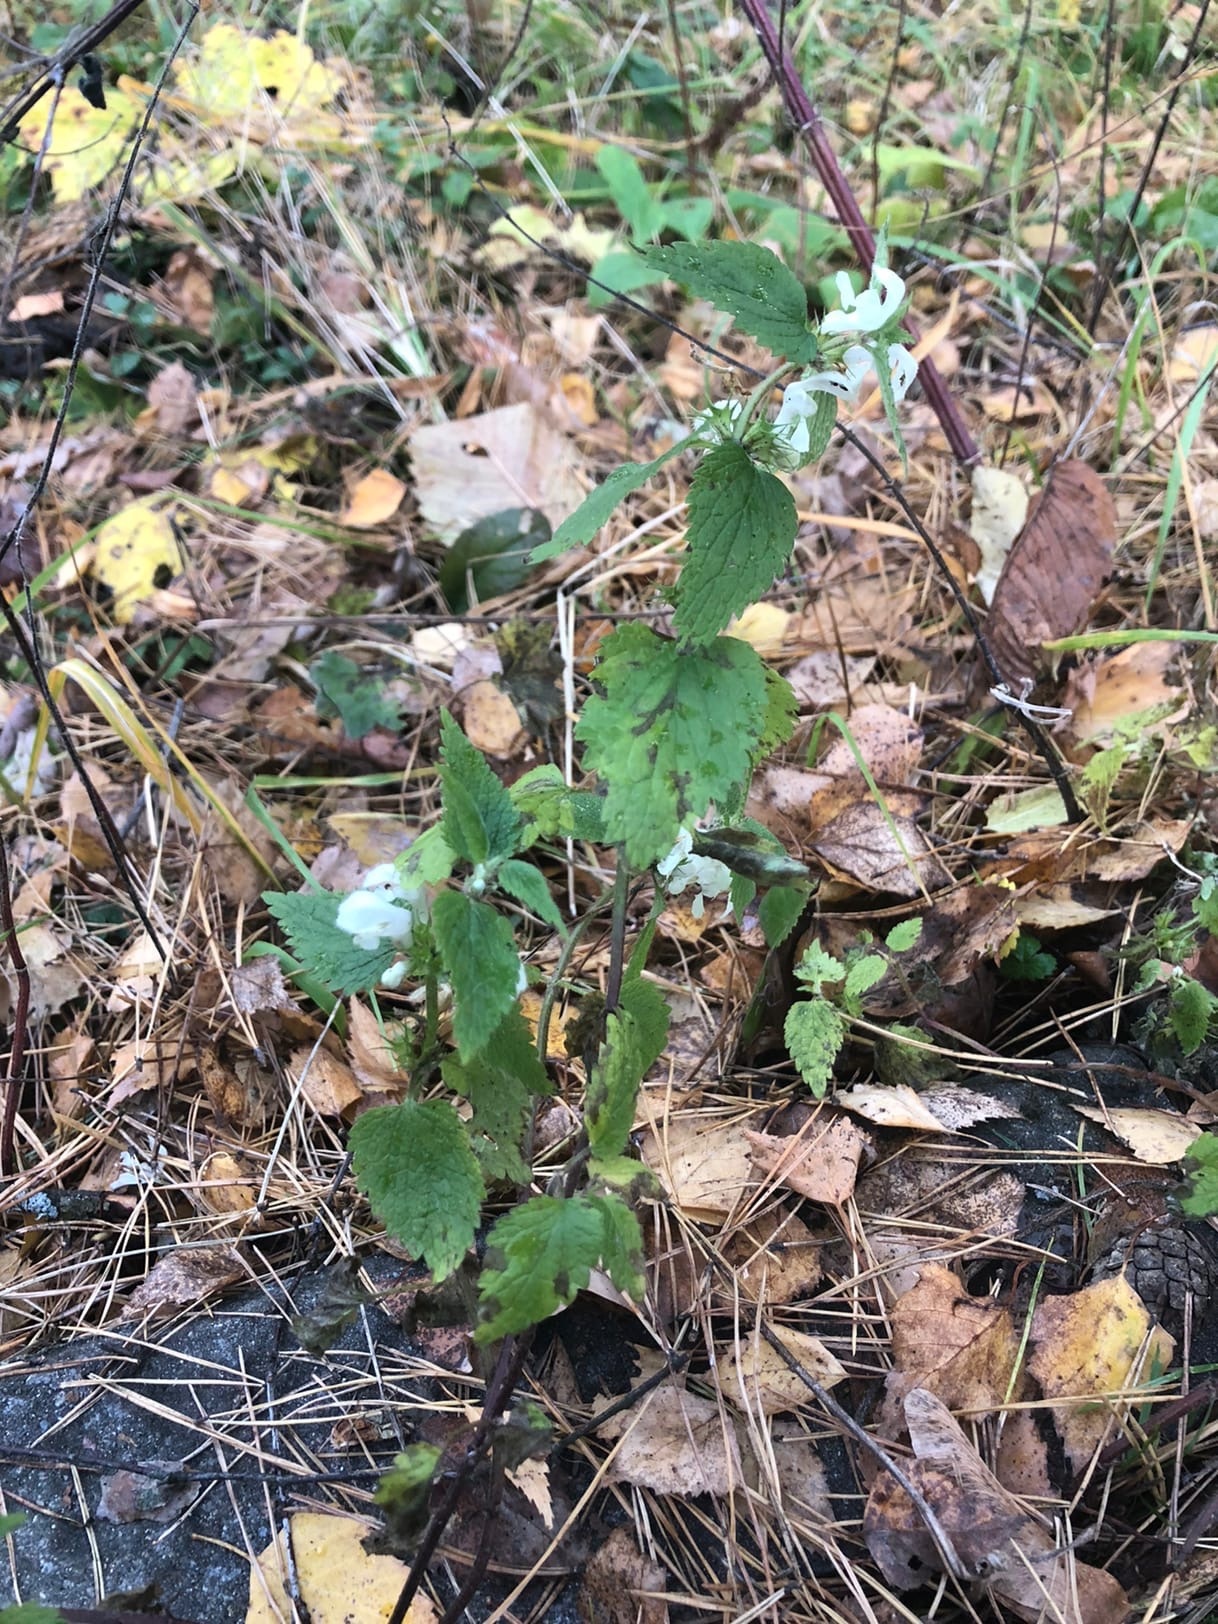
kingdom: Plantae
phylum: Tracheophyta
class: Magnoliopsida
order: Lamiales
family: Lamiaceae
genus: Lamium
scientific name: Lamium album
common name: White dead-nettle
